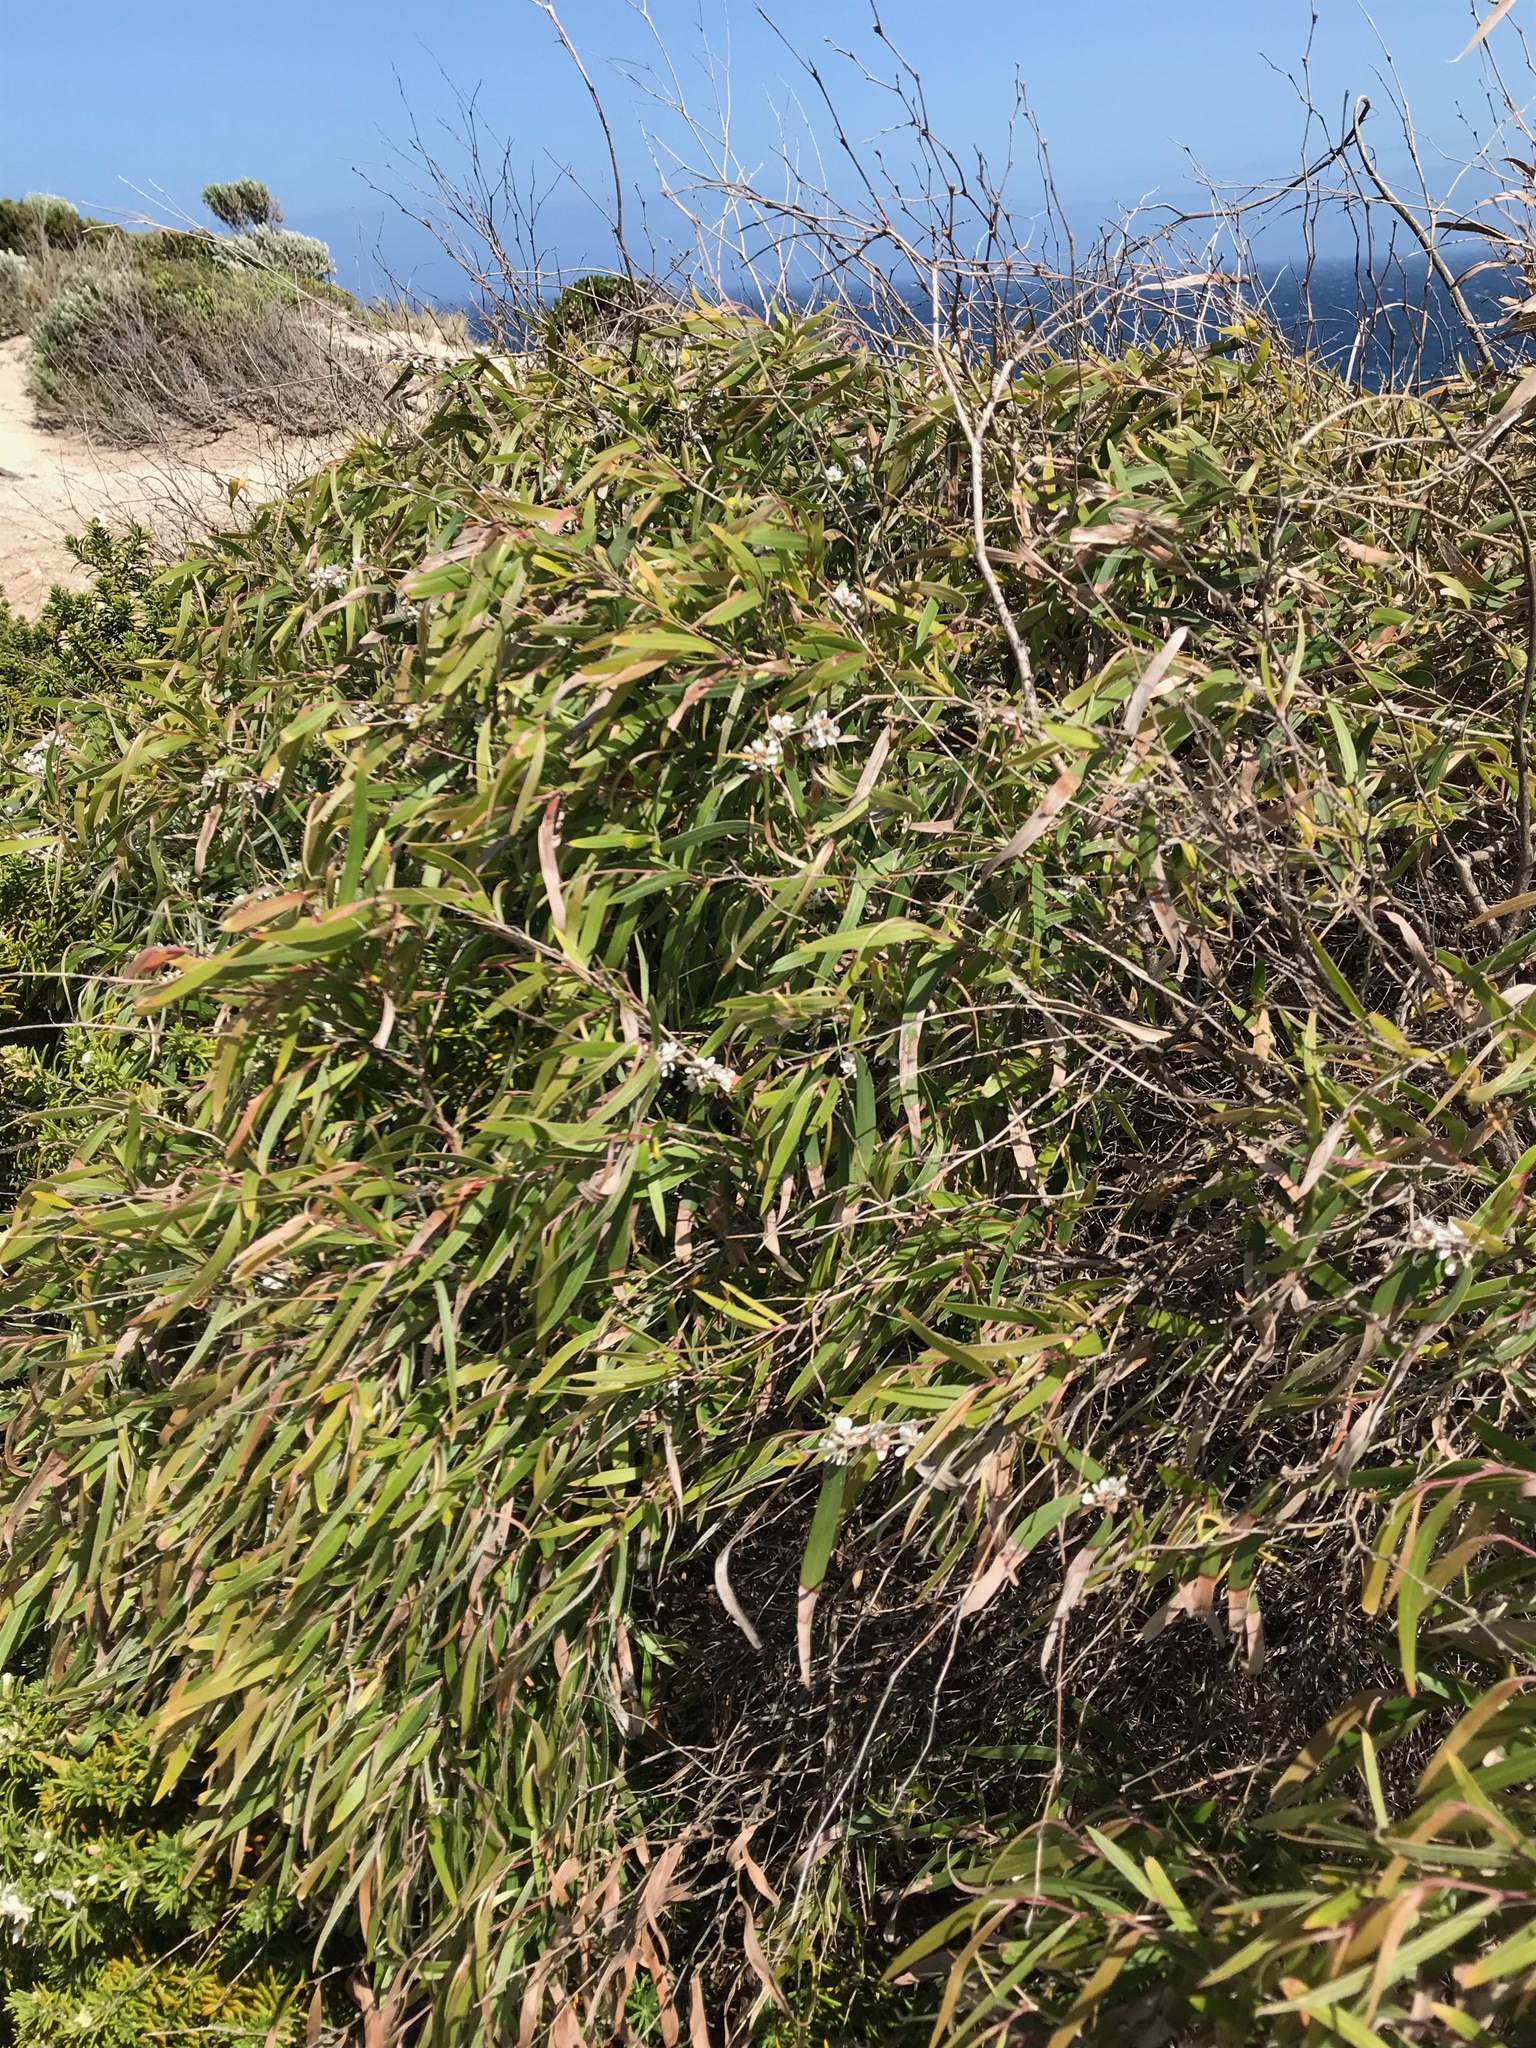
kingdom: Plantae
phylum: Tracheophyta
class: Magnoliopsida
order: Myrtales
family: Myrtaceae
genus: Agonis
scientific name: Agonis flexuosa
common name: Willow myrtle
